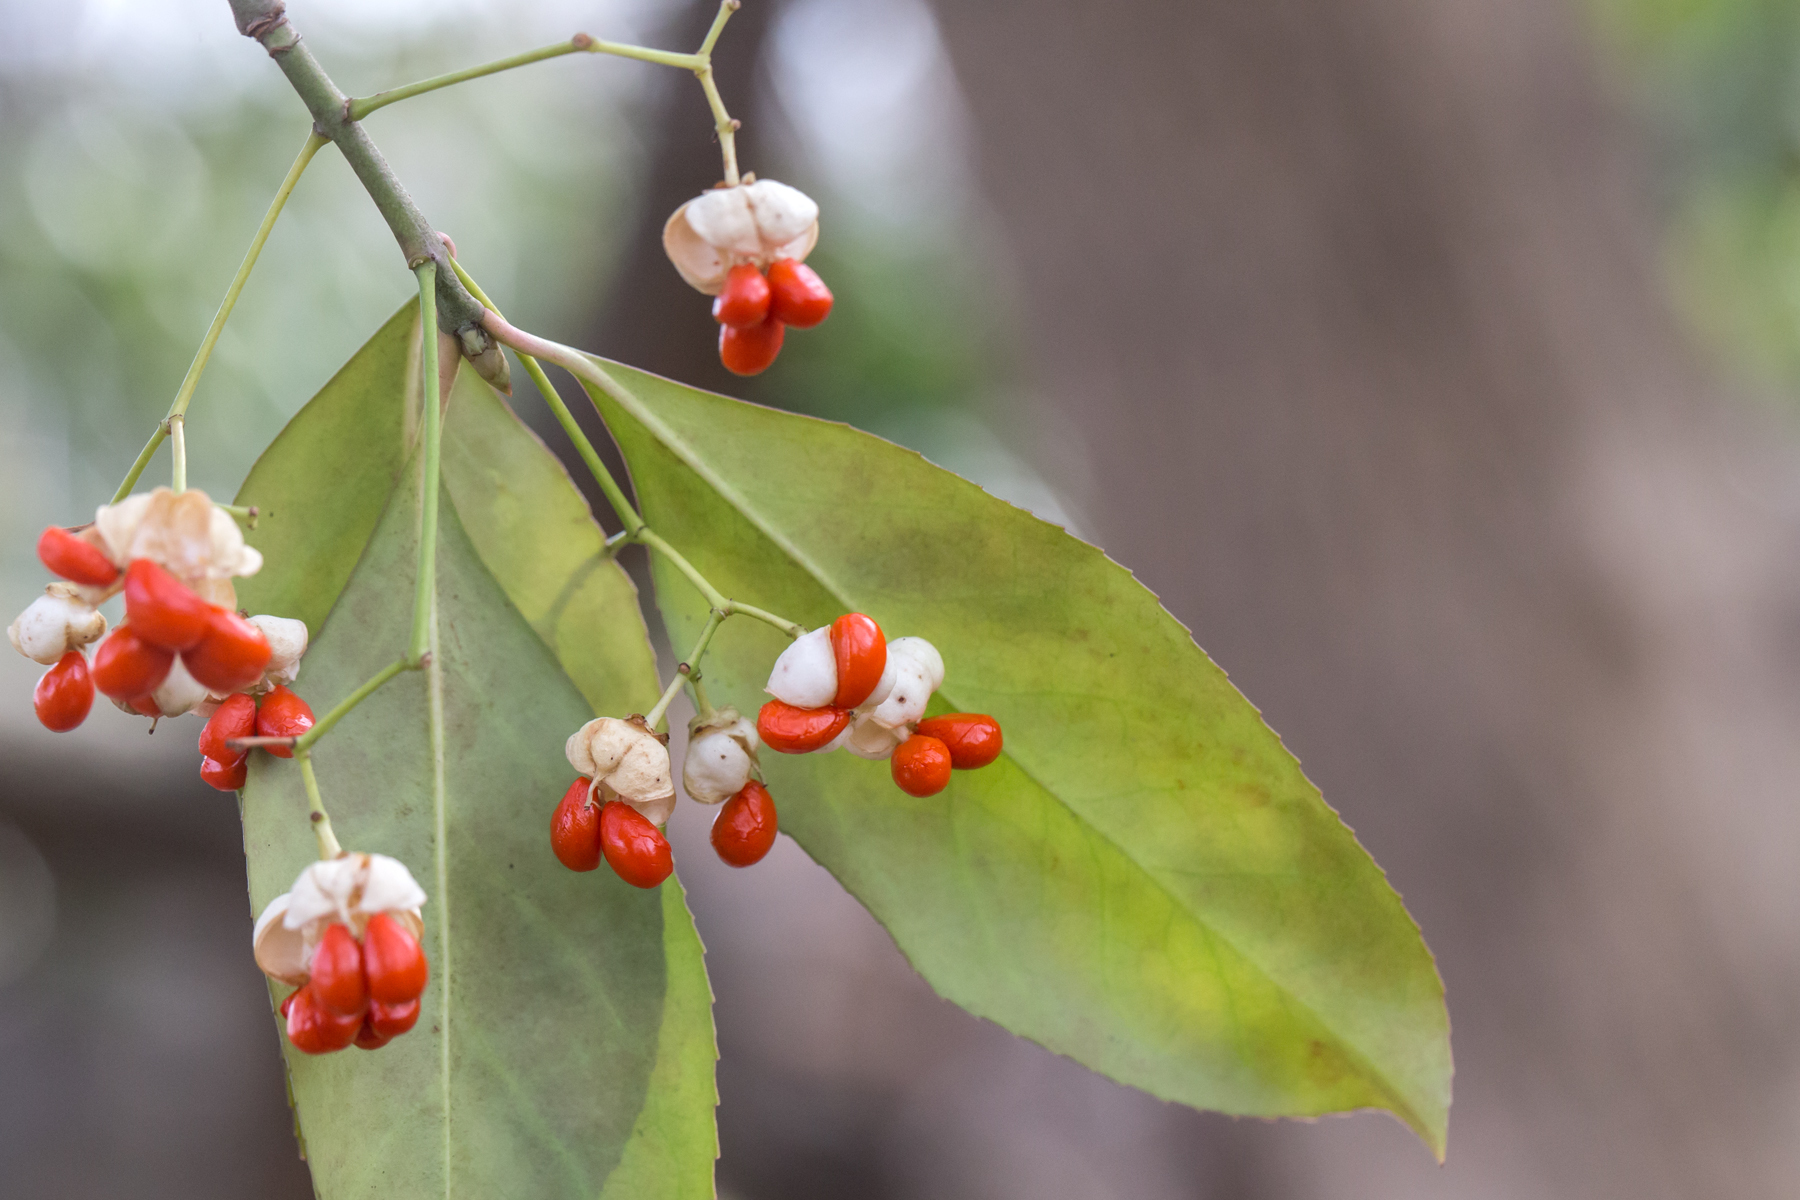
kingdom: Plantae
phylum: Tracheophyta
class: Magnoliopsida
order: Celastrales
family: Celastraceae
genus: Euonymus
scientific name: Euonymus fortunei
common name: Climbing euonymus
